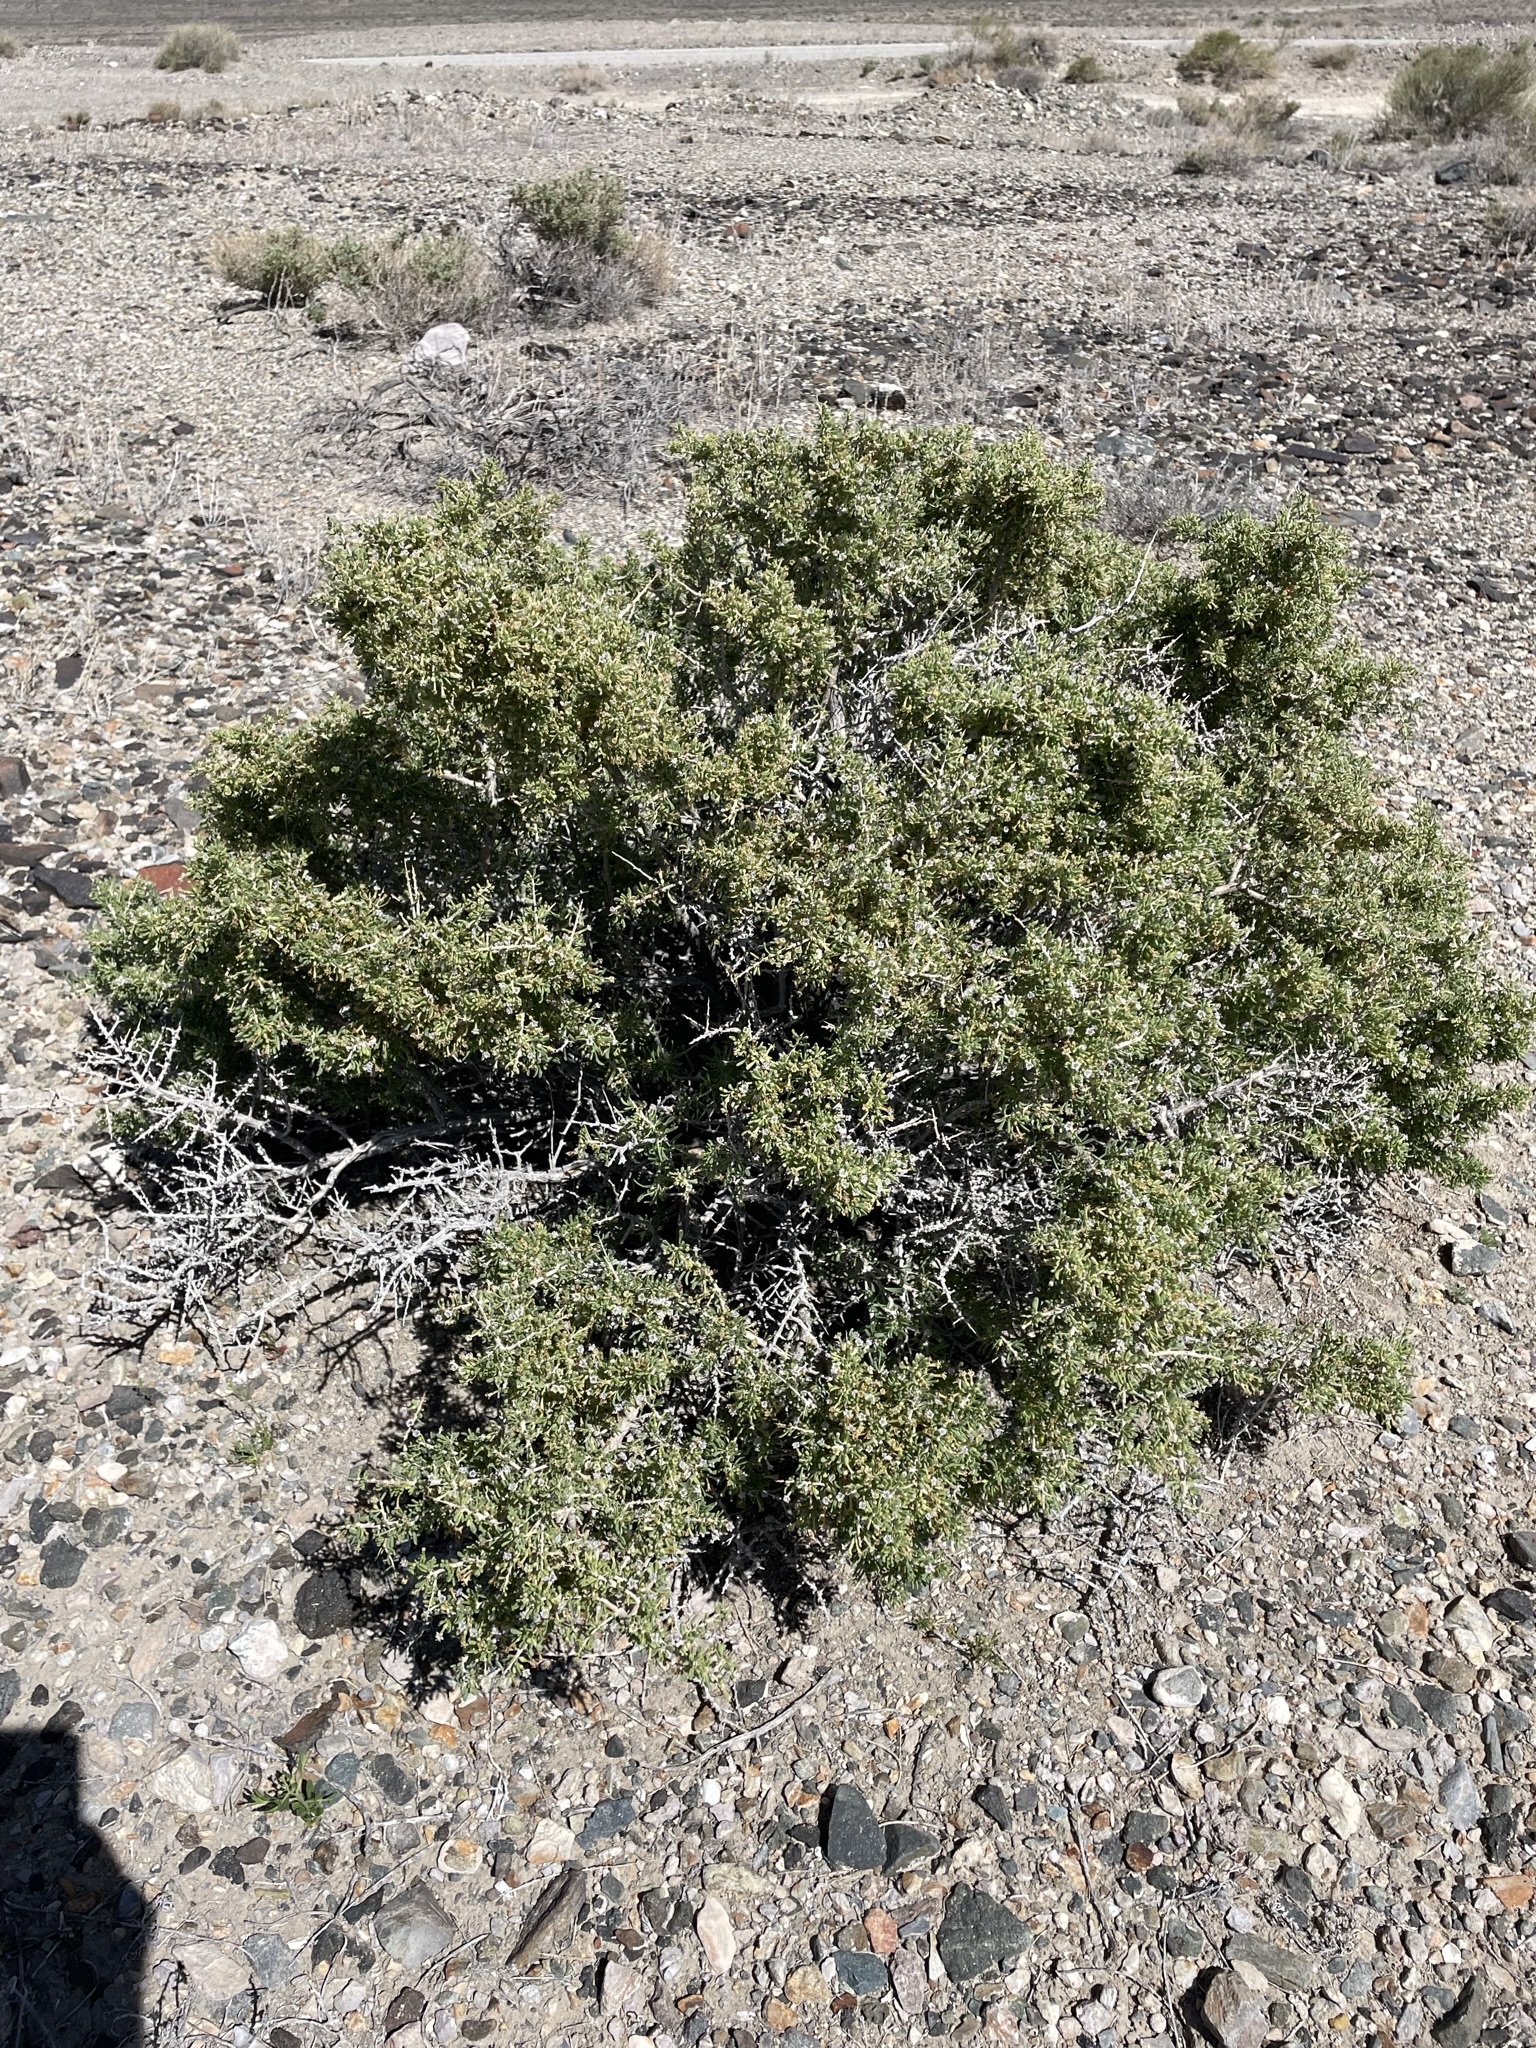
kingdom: Plantae
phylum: Tracheophyta
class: Magnoliopsida
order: Solanales
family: Solanaceae
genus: Lycium
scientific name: Lycium andersonii
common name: Water-jacket
